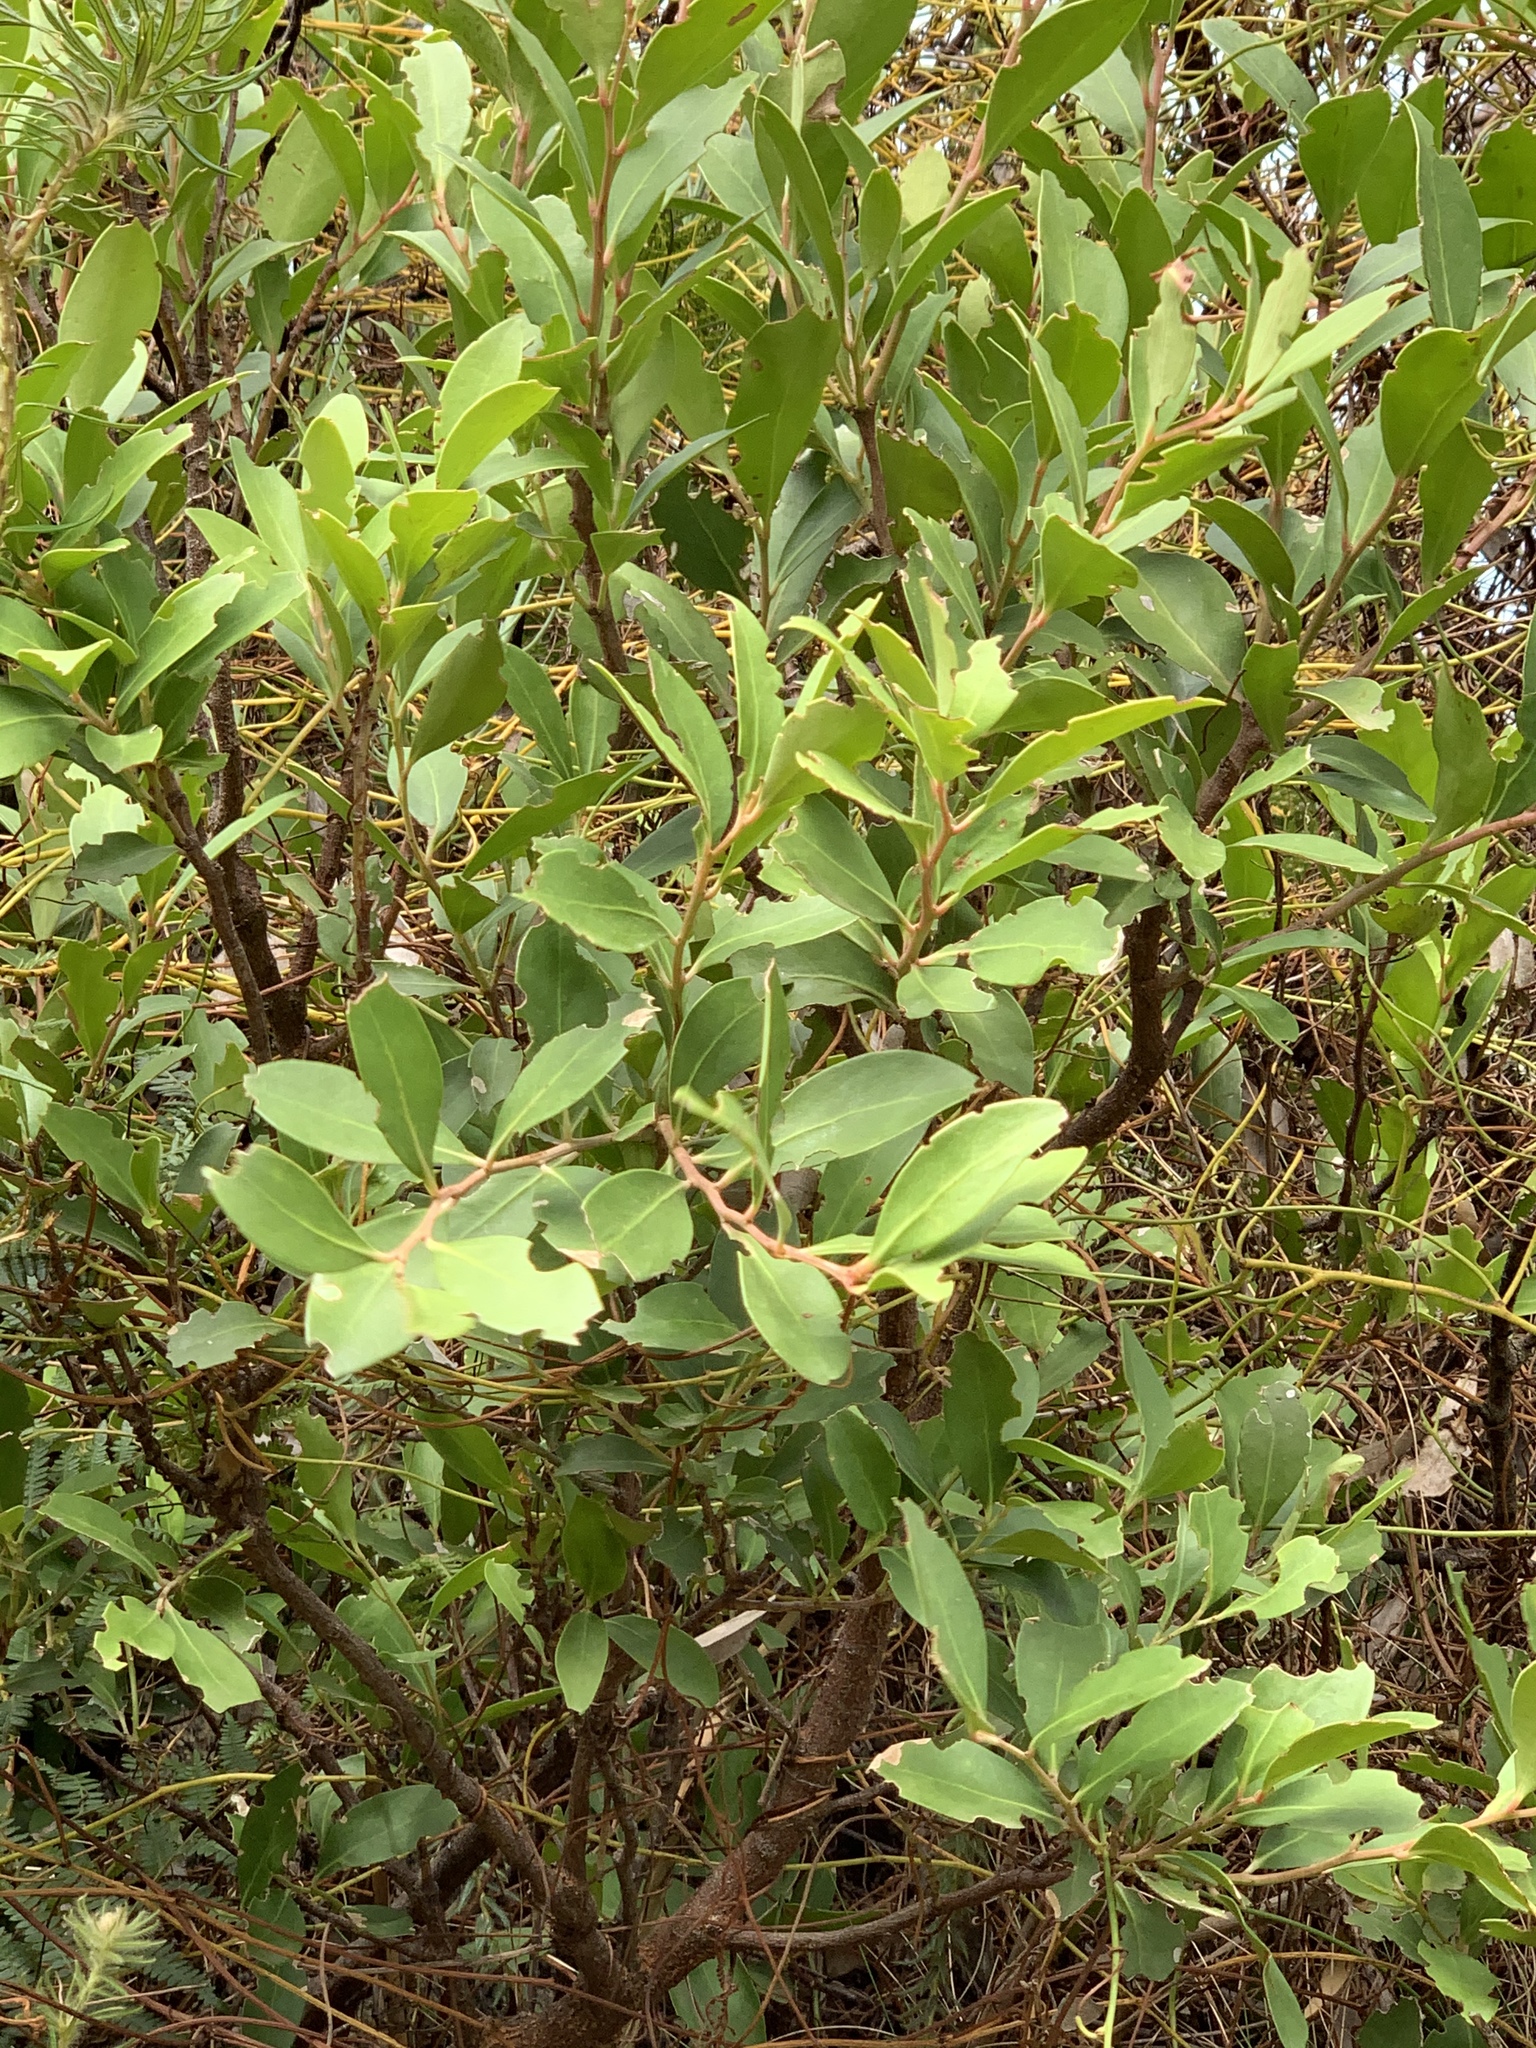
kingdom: Plantae
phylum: Tracheophyta
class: Magnoliopsida
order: Celastrales
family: Celastraceae
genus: Gymnosporia
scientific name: Gymnosporia laurina
